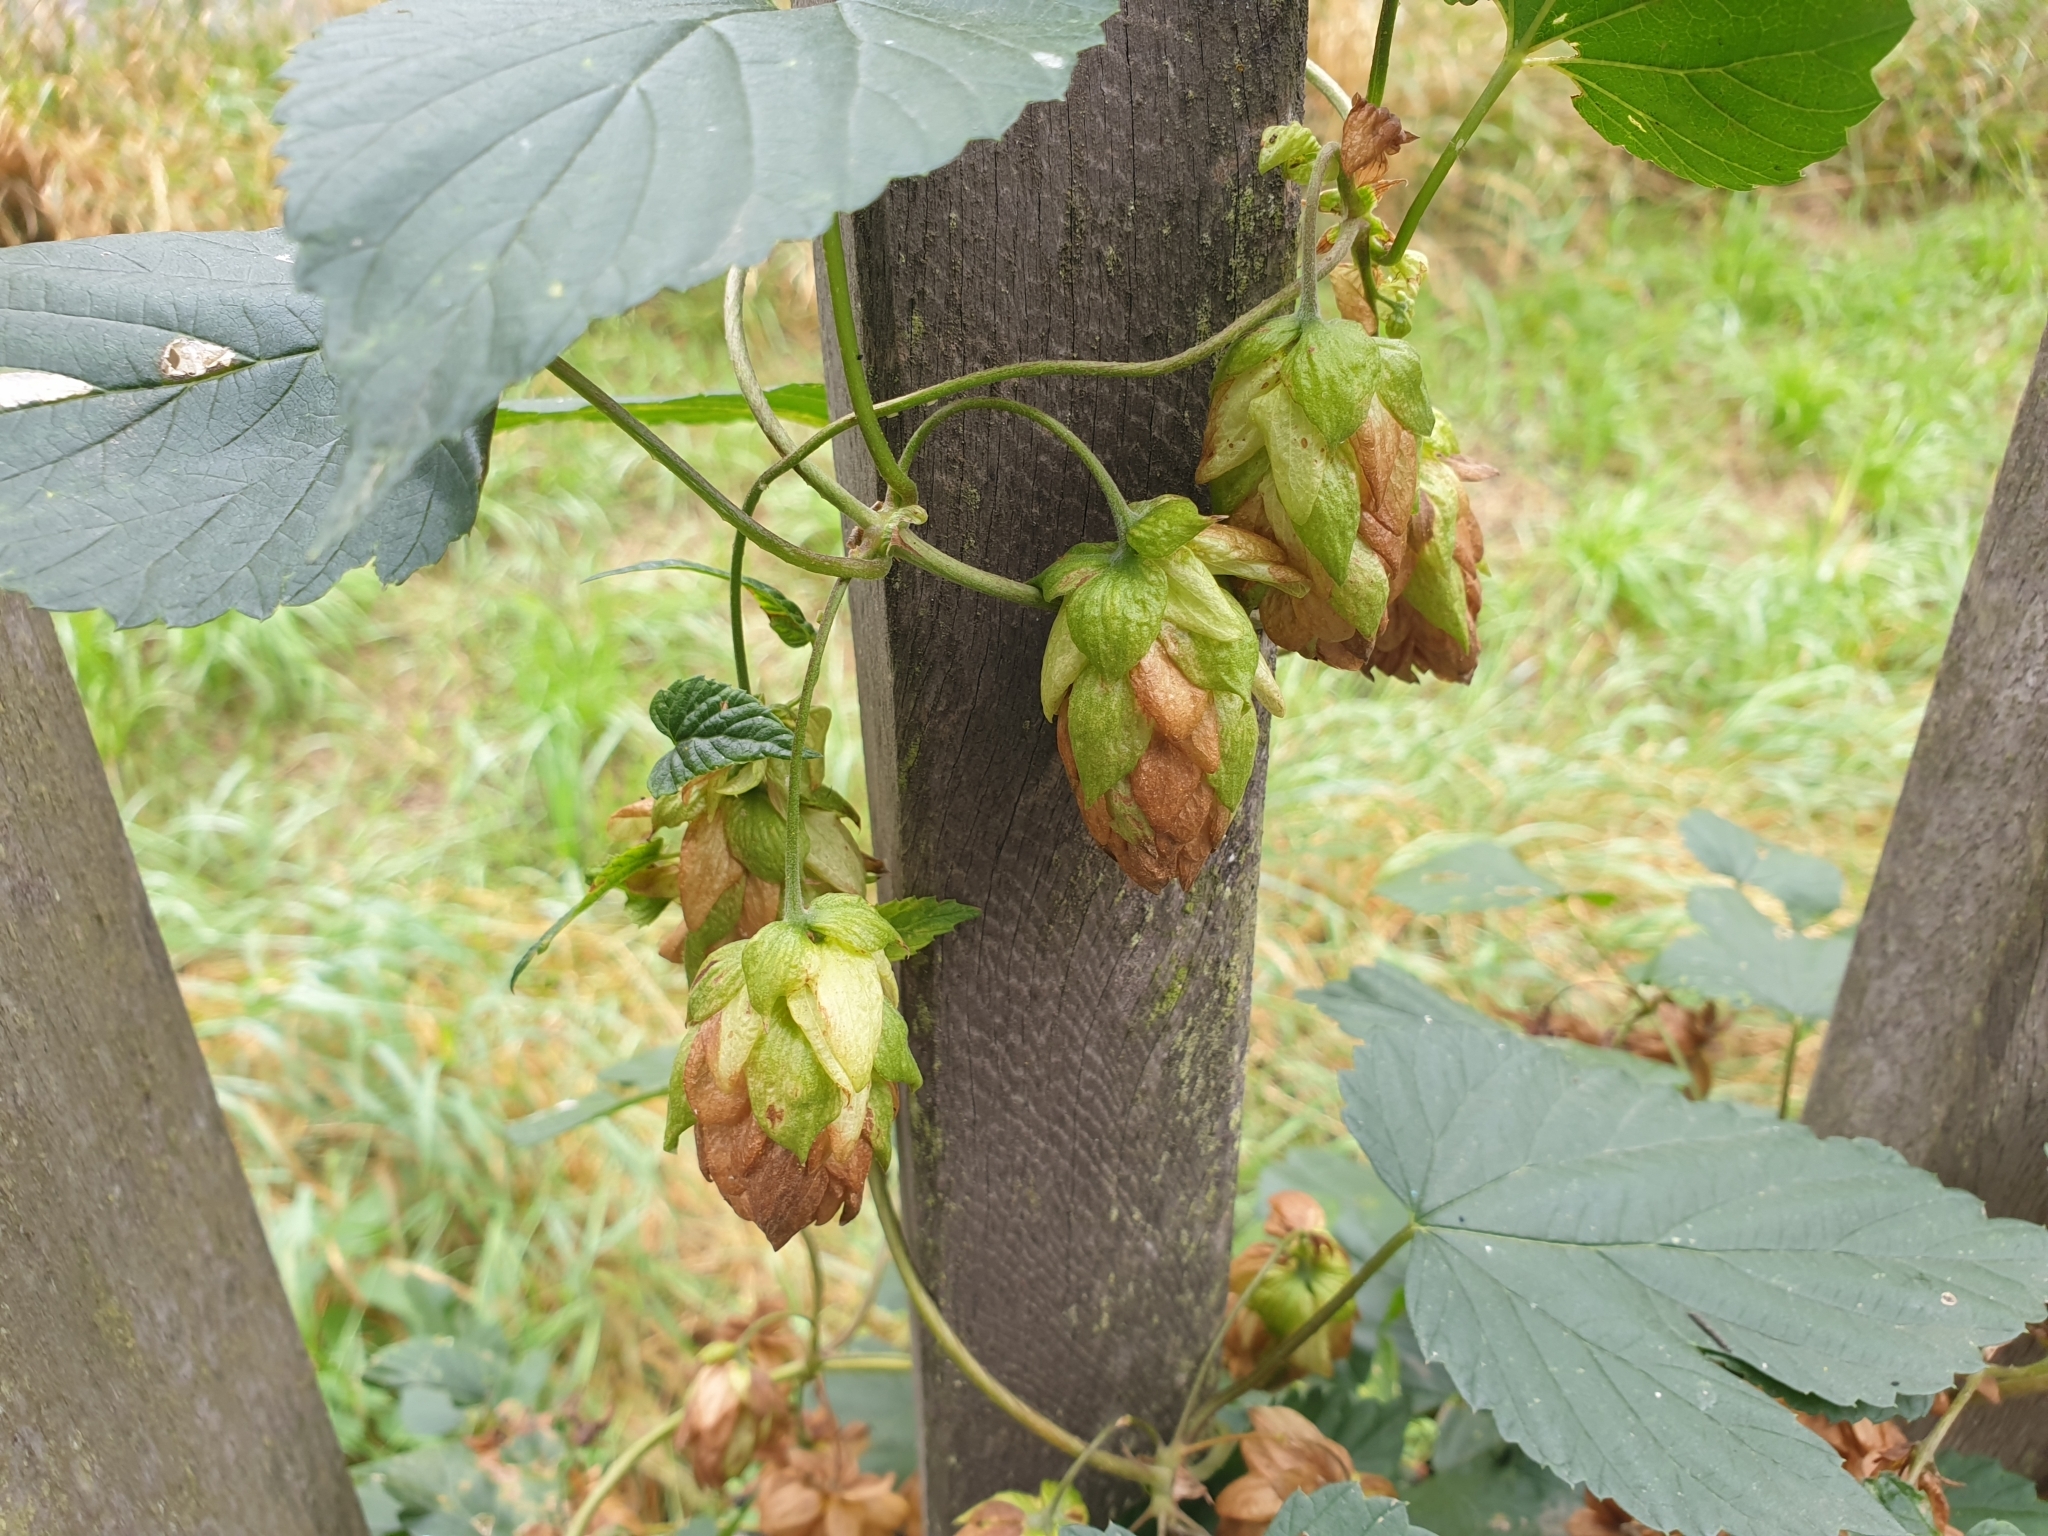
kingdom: Plantae
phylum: Tracheophyta
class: Magnoliopsida
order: Rosales
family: Cannabaceae
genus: Humulus
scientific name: Humulus lupulus
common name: Hop
